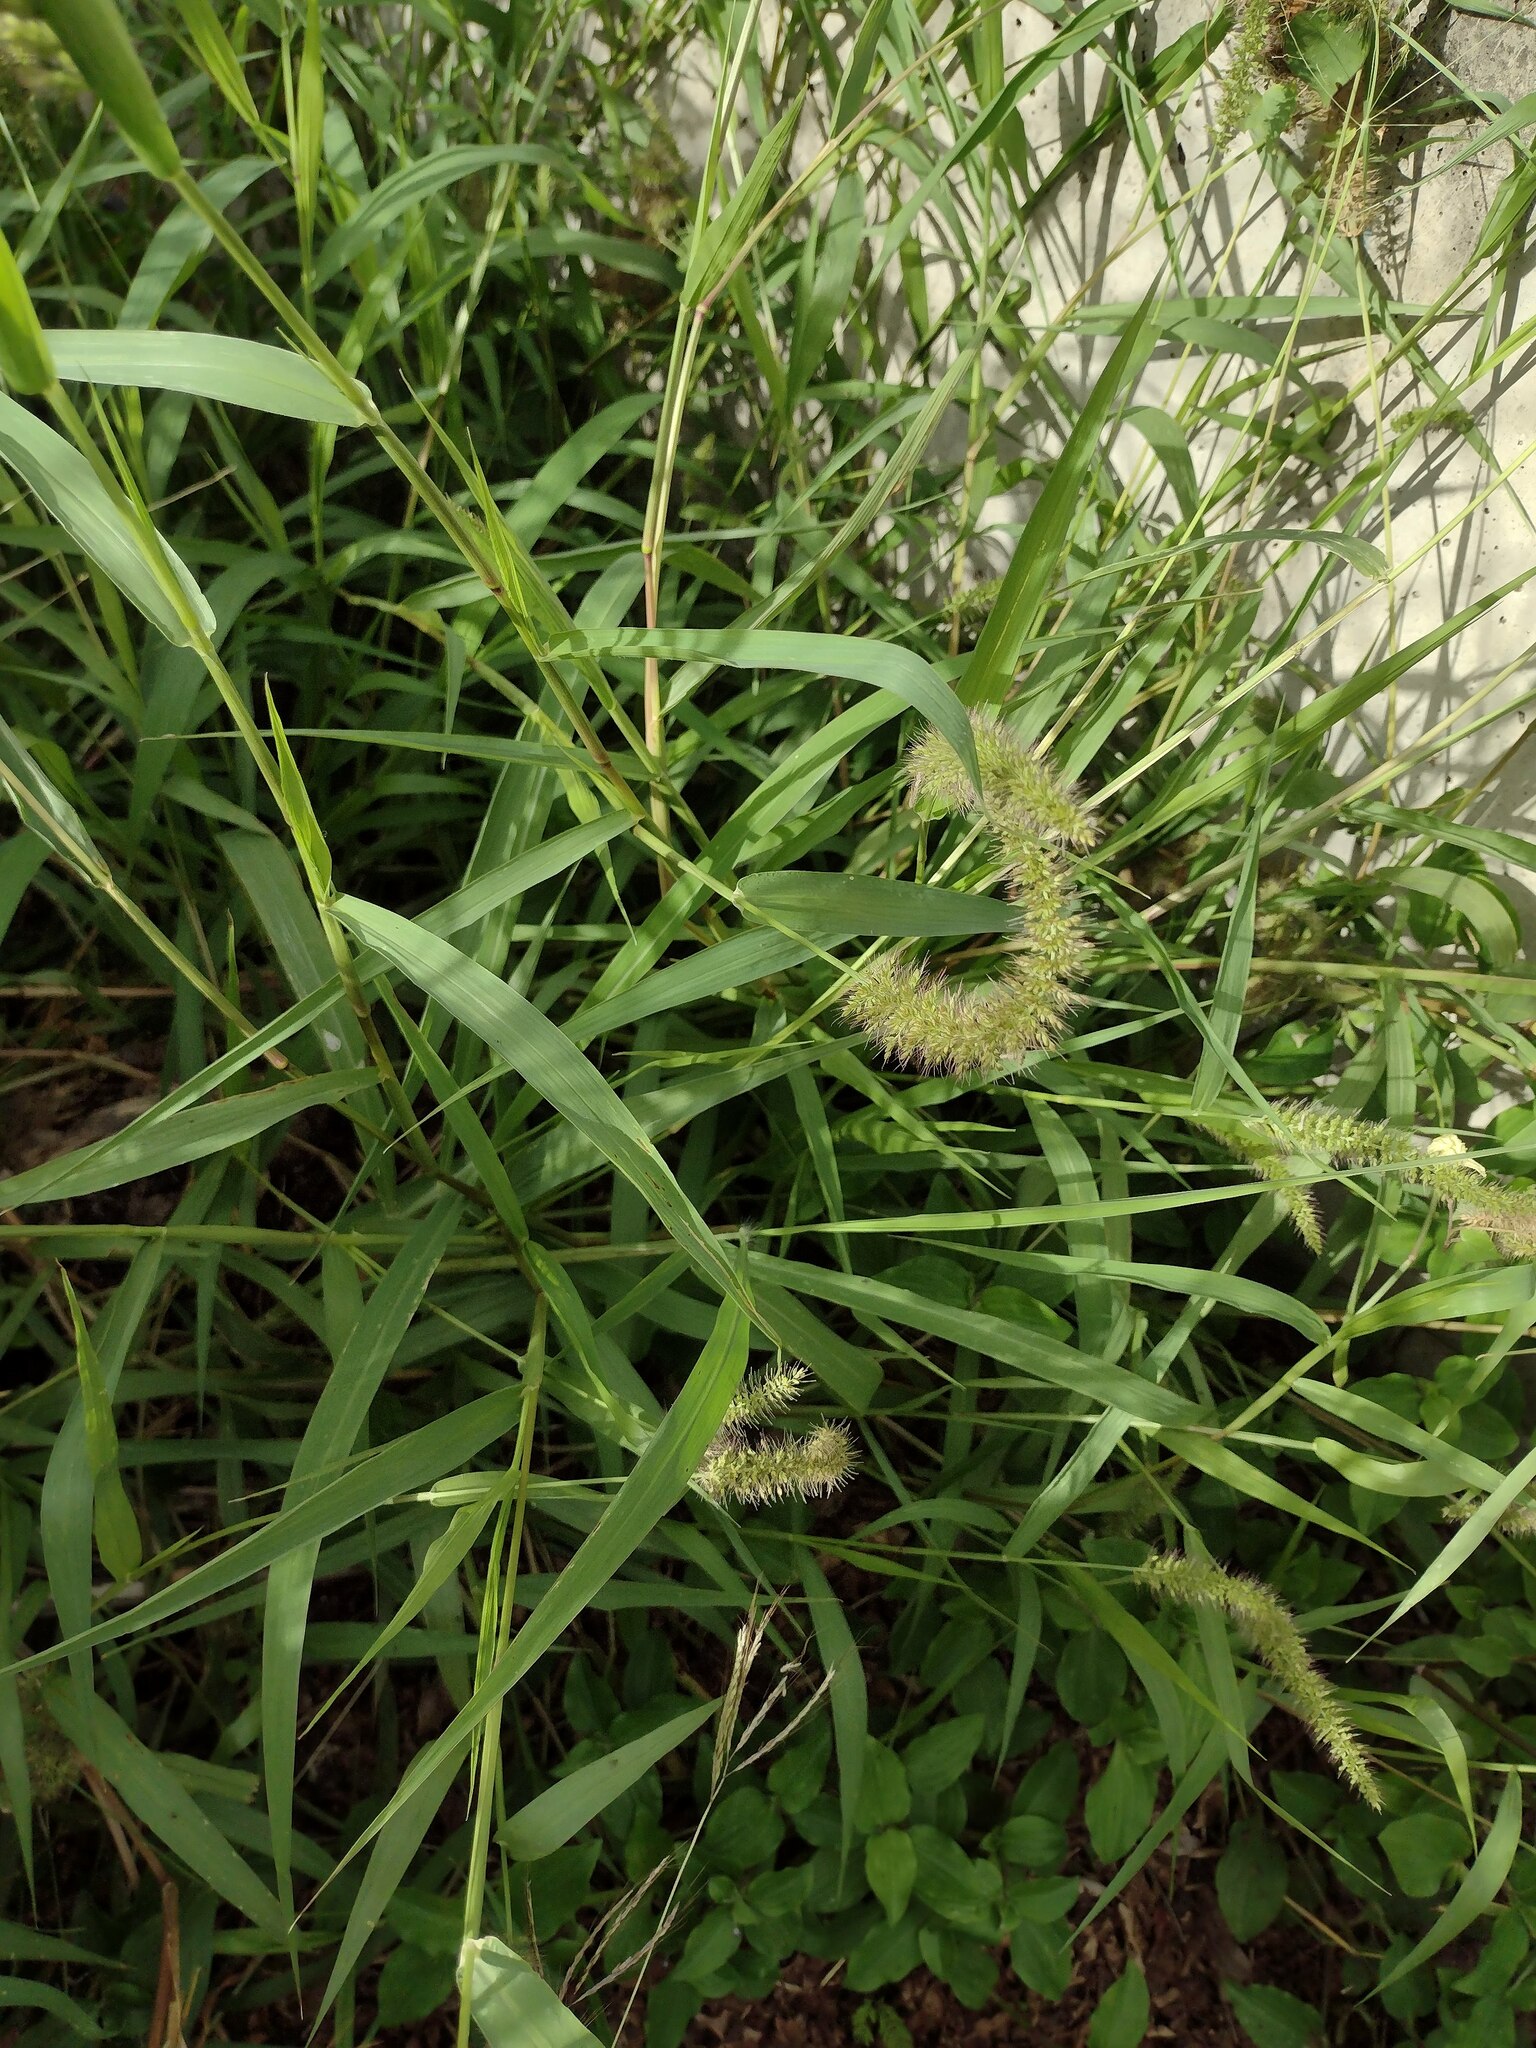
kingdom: Plantae
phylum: Tracheophyta
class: Liliopsida
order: Poales
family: Poaceae
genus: Setaria
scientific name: Setaria adhaerens
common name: Adherent bristle-grass
